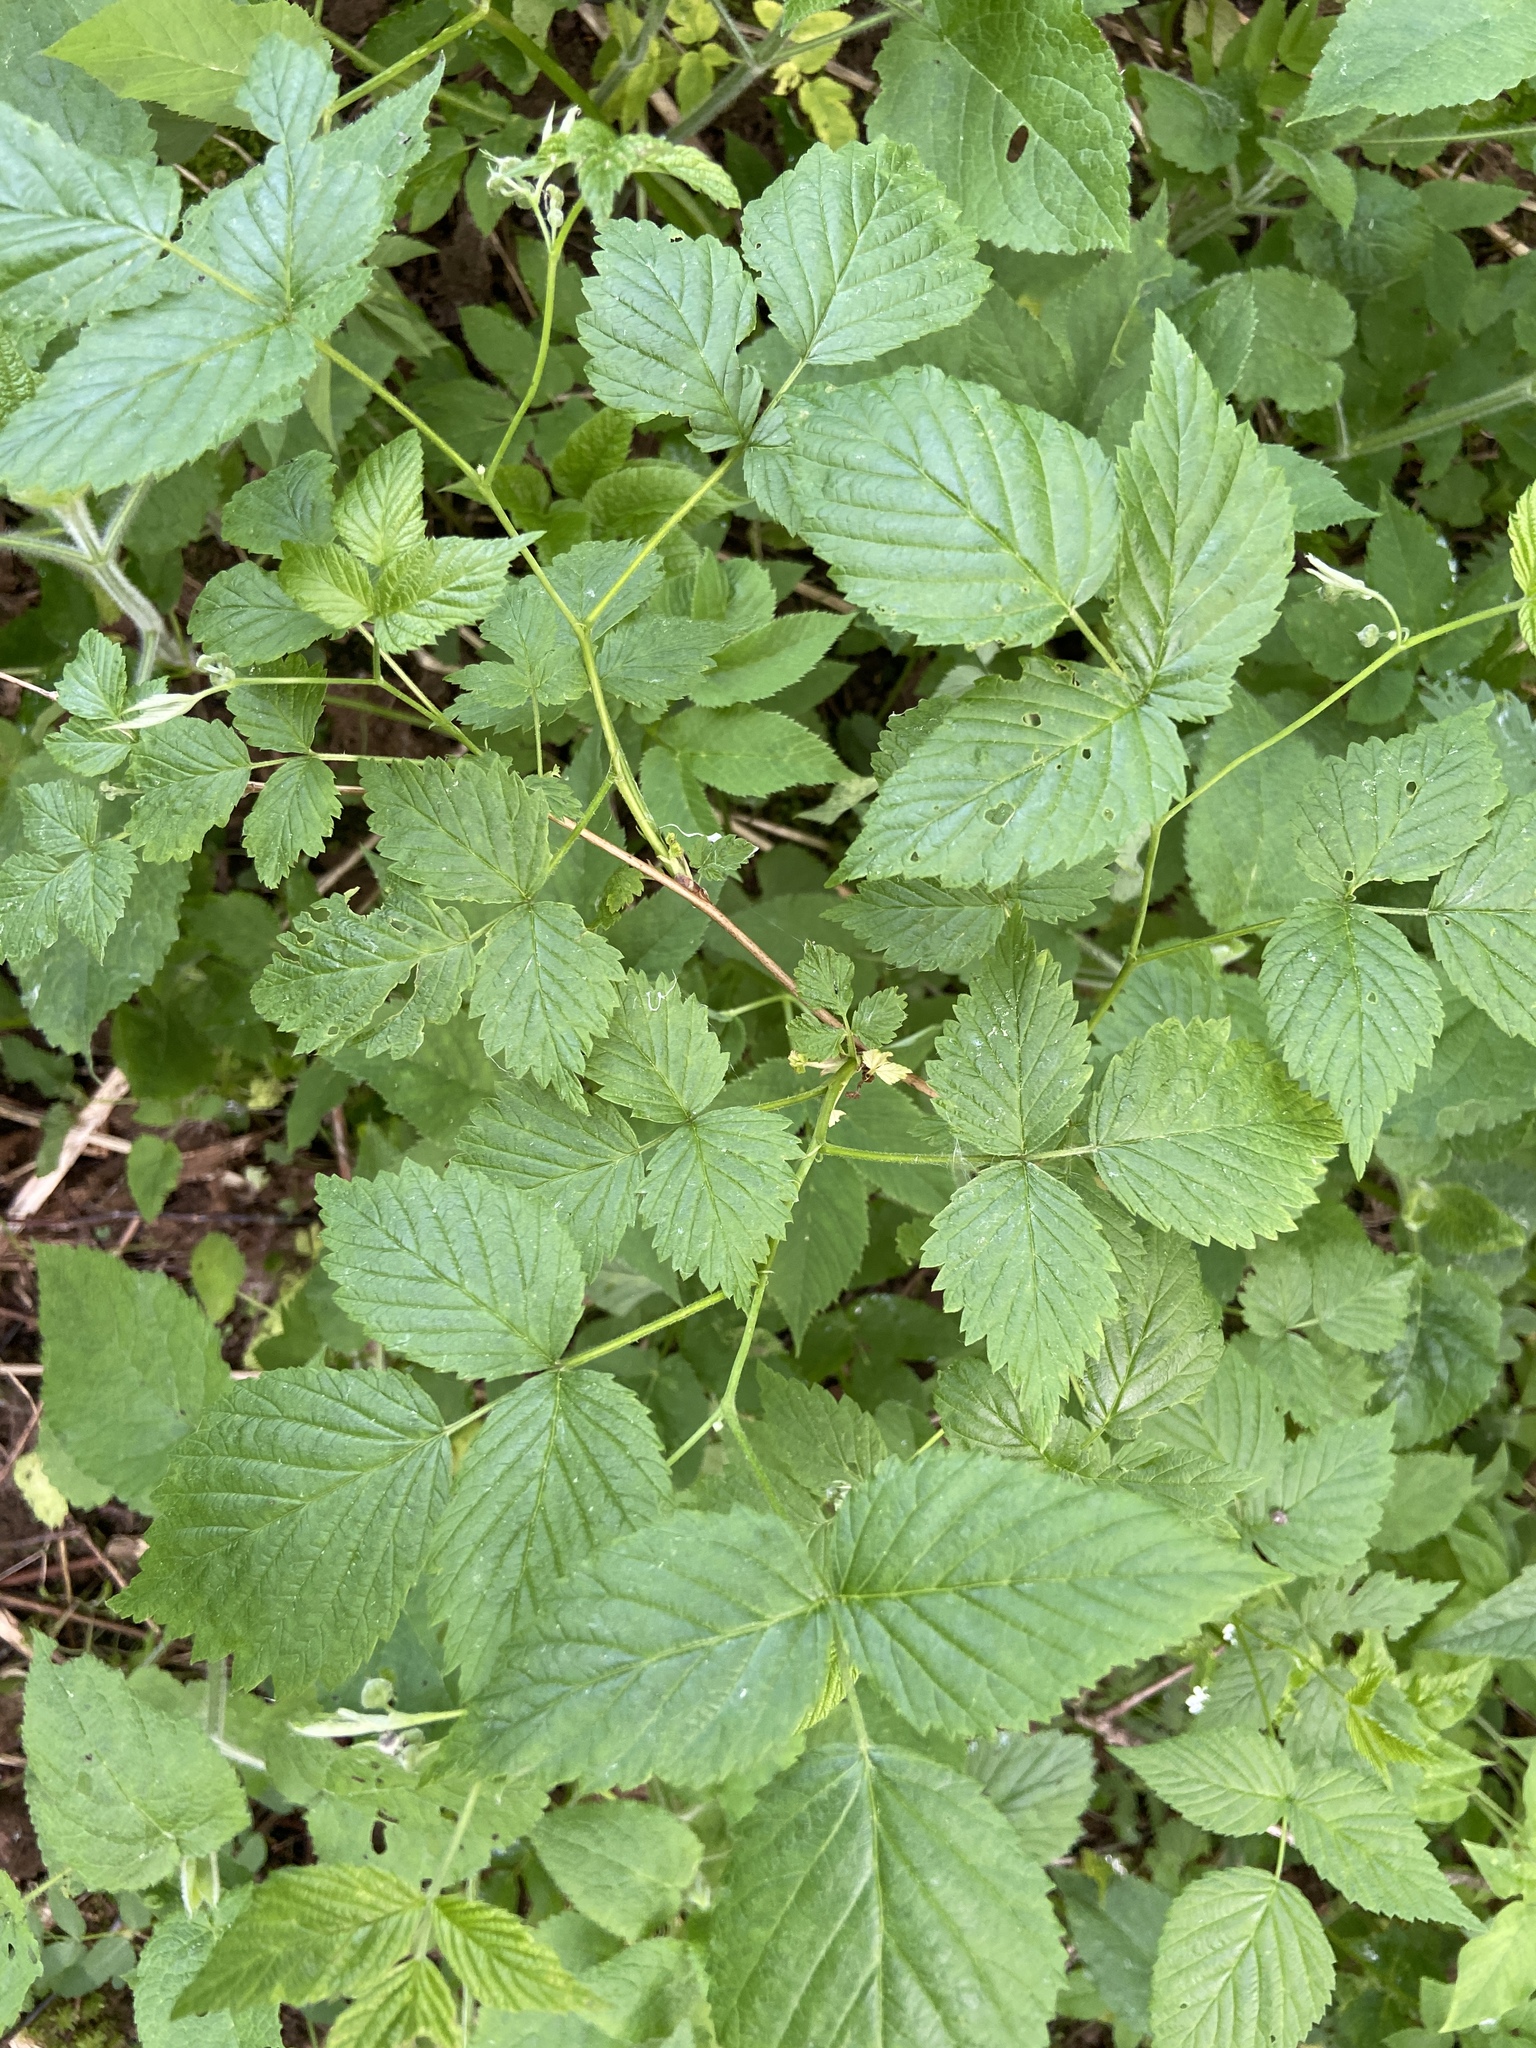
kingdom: Plantae
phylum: Tracheophyta
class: Magnoliopsida
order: Rosales
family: Rosaceae
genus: Rubus
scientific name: Rubus idaeus
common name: Raspberry
